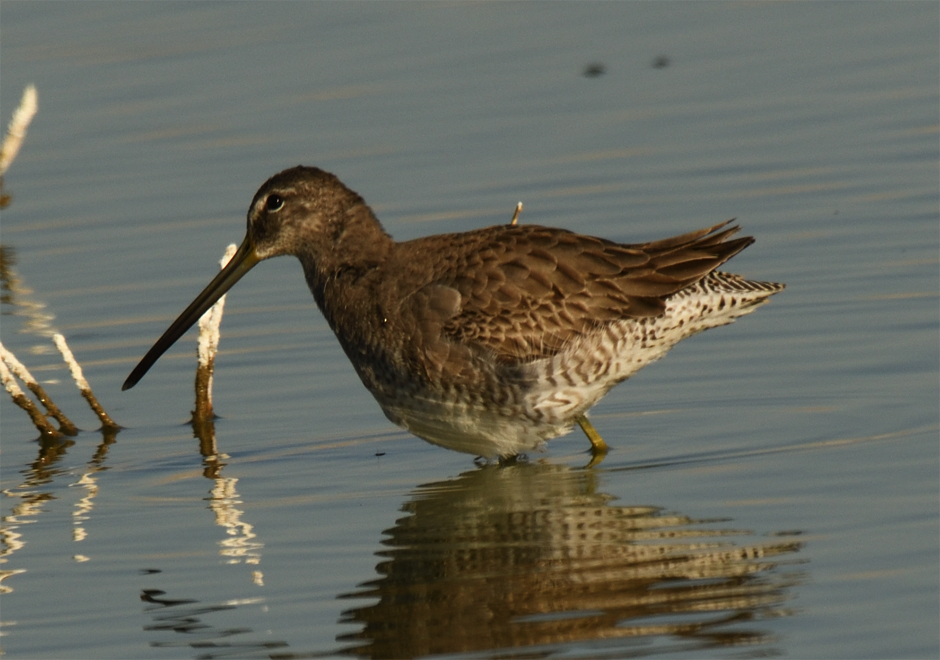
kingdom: Animalia
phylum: Chordata
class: Aves
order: Charadriiformes
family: Scolopacidae
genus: Limnodromus
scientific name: Limnodromus scolopaceus
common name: Long-billed dowitcher
